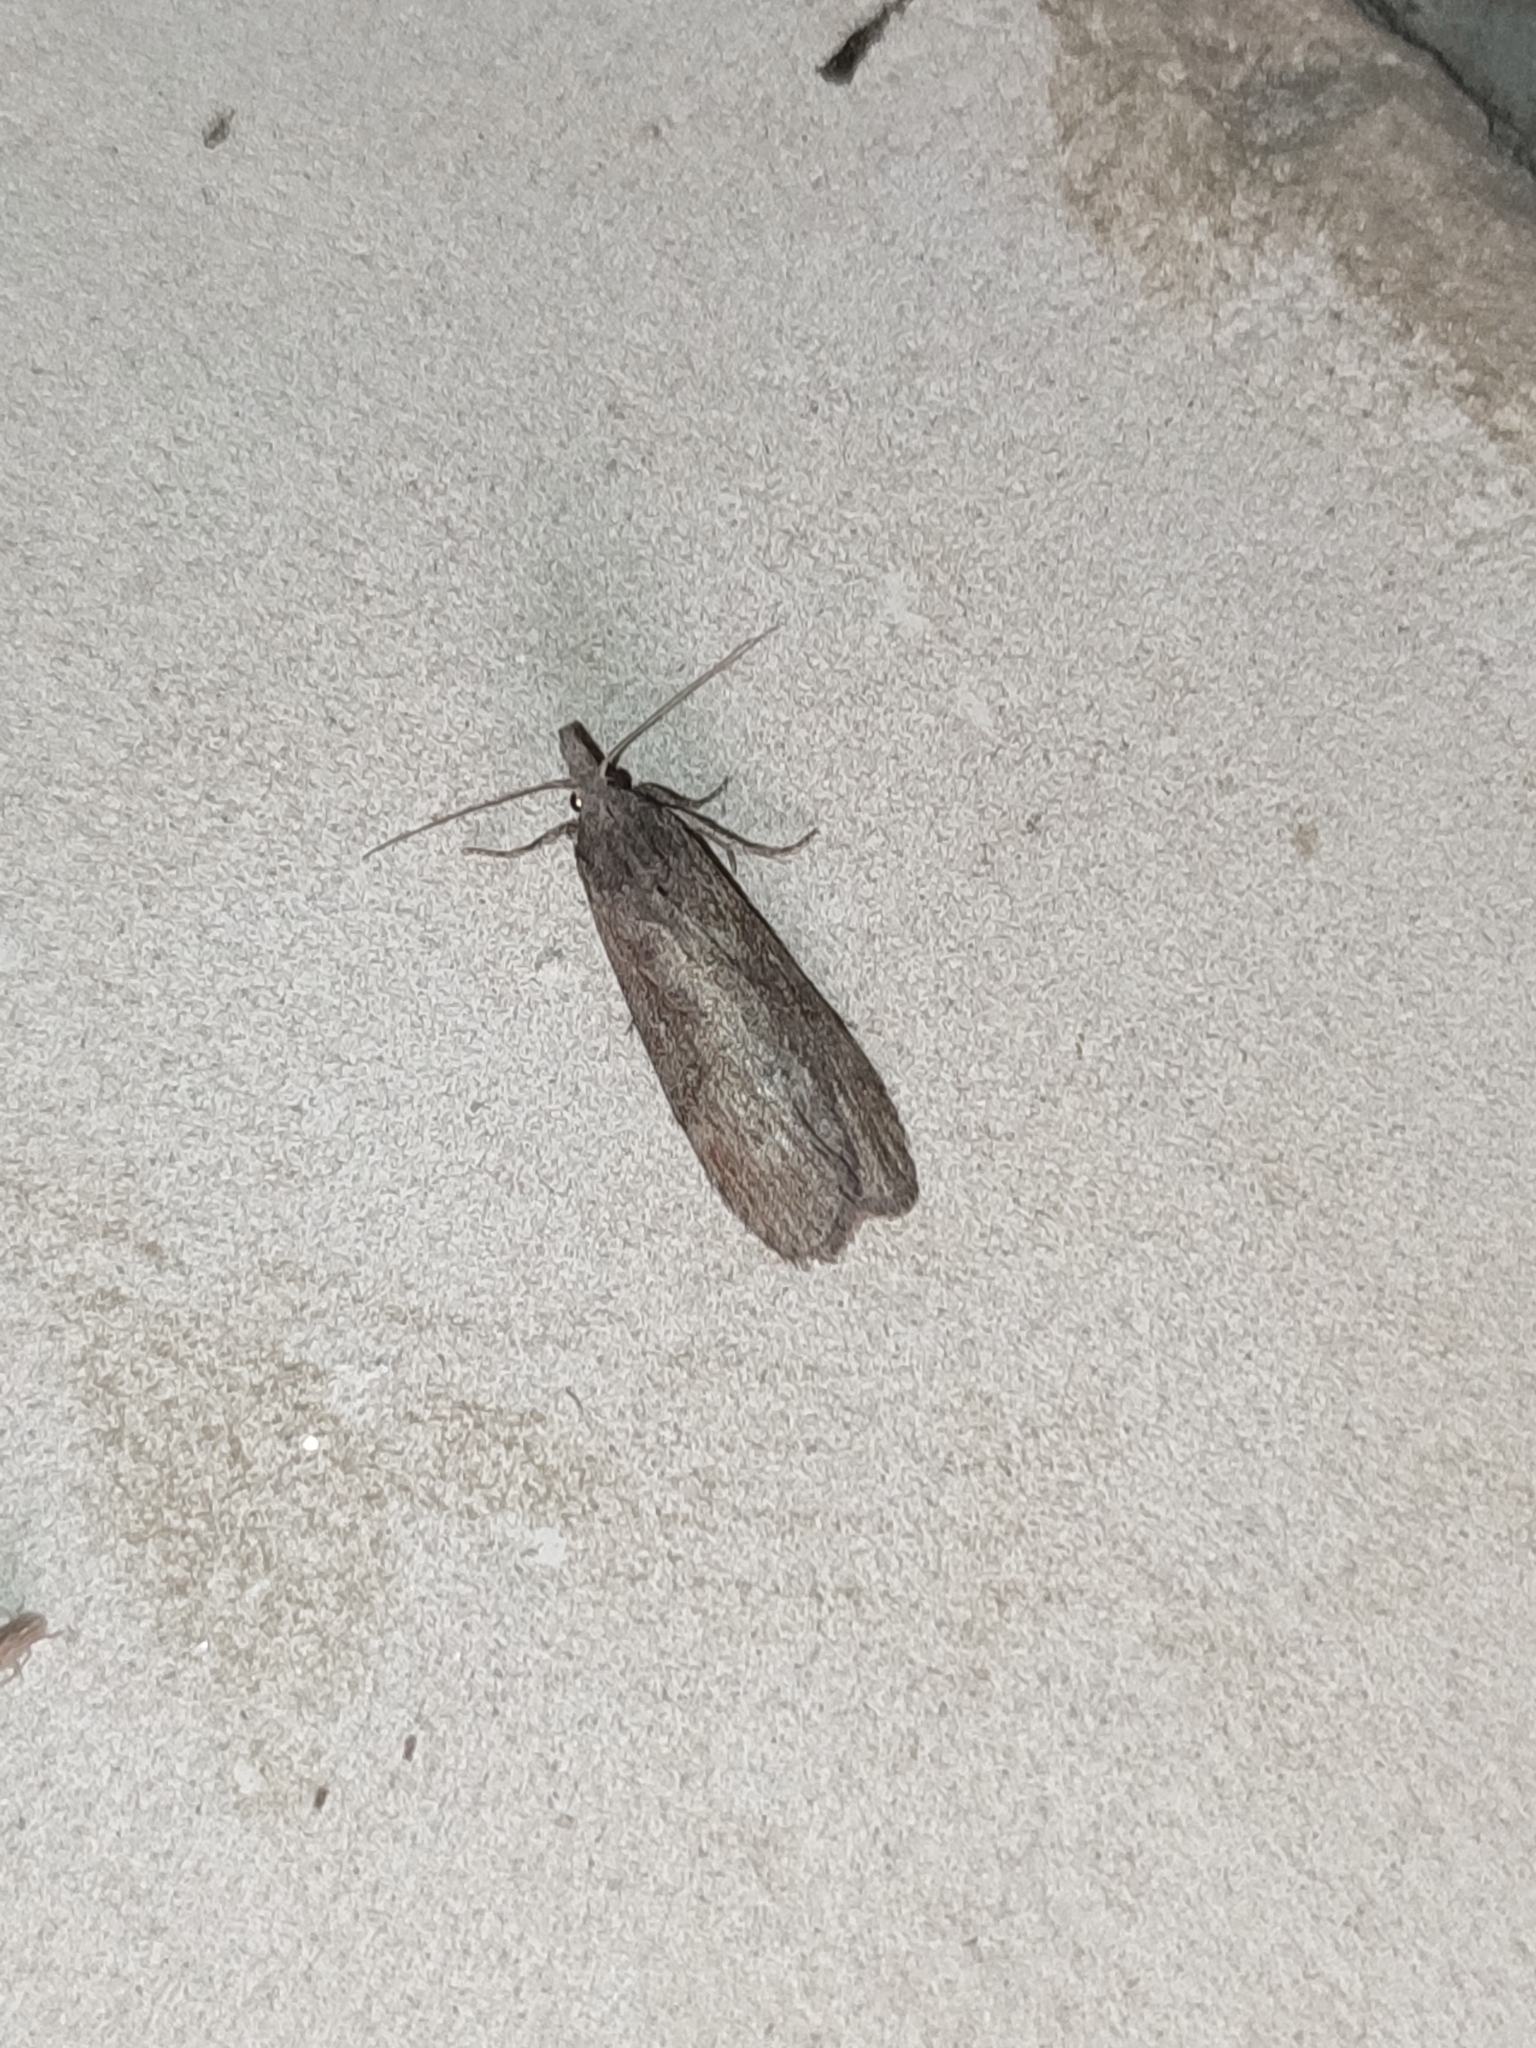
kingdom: Animalia
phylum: Arthropoda
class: Insecta
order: Lepidoptera
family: Pyralidae
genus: Lamoria
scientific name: Lamoria anella
